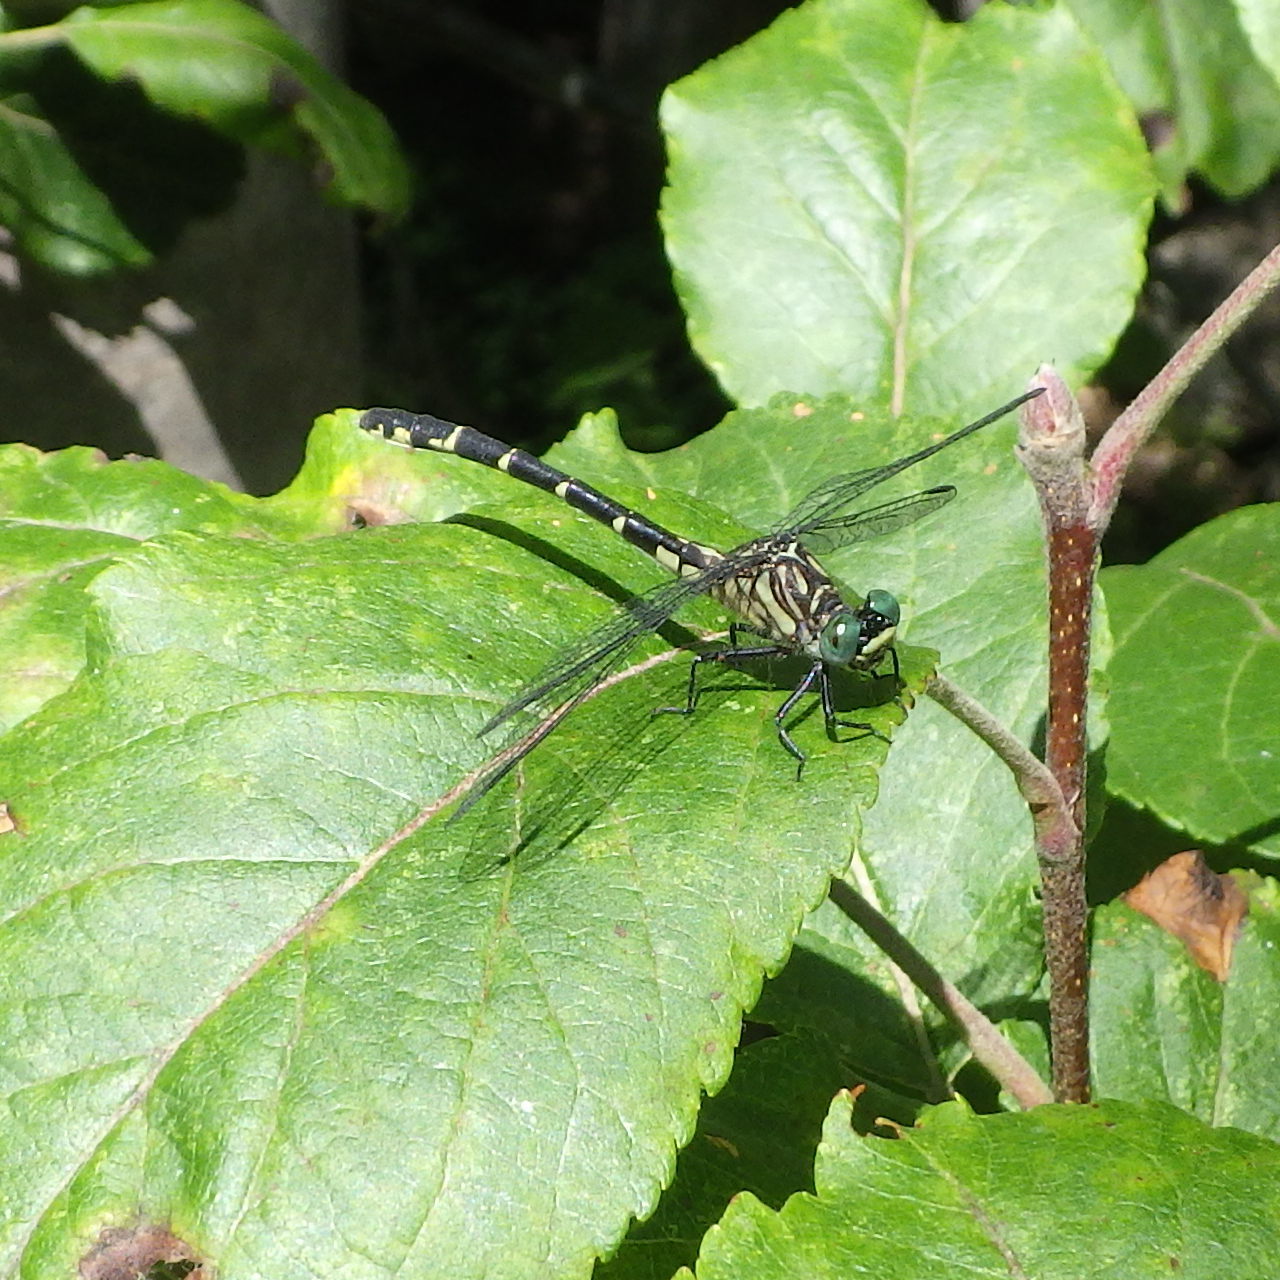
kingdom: Animalia
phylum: Arthropoda
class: Insecta
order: Odonata
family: Gomphidae
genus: Stylogomphus
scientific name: Stylogomphus albistylus
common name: Eastern least clubtail
